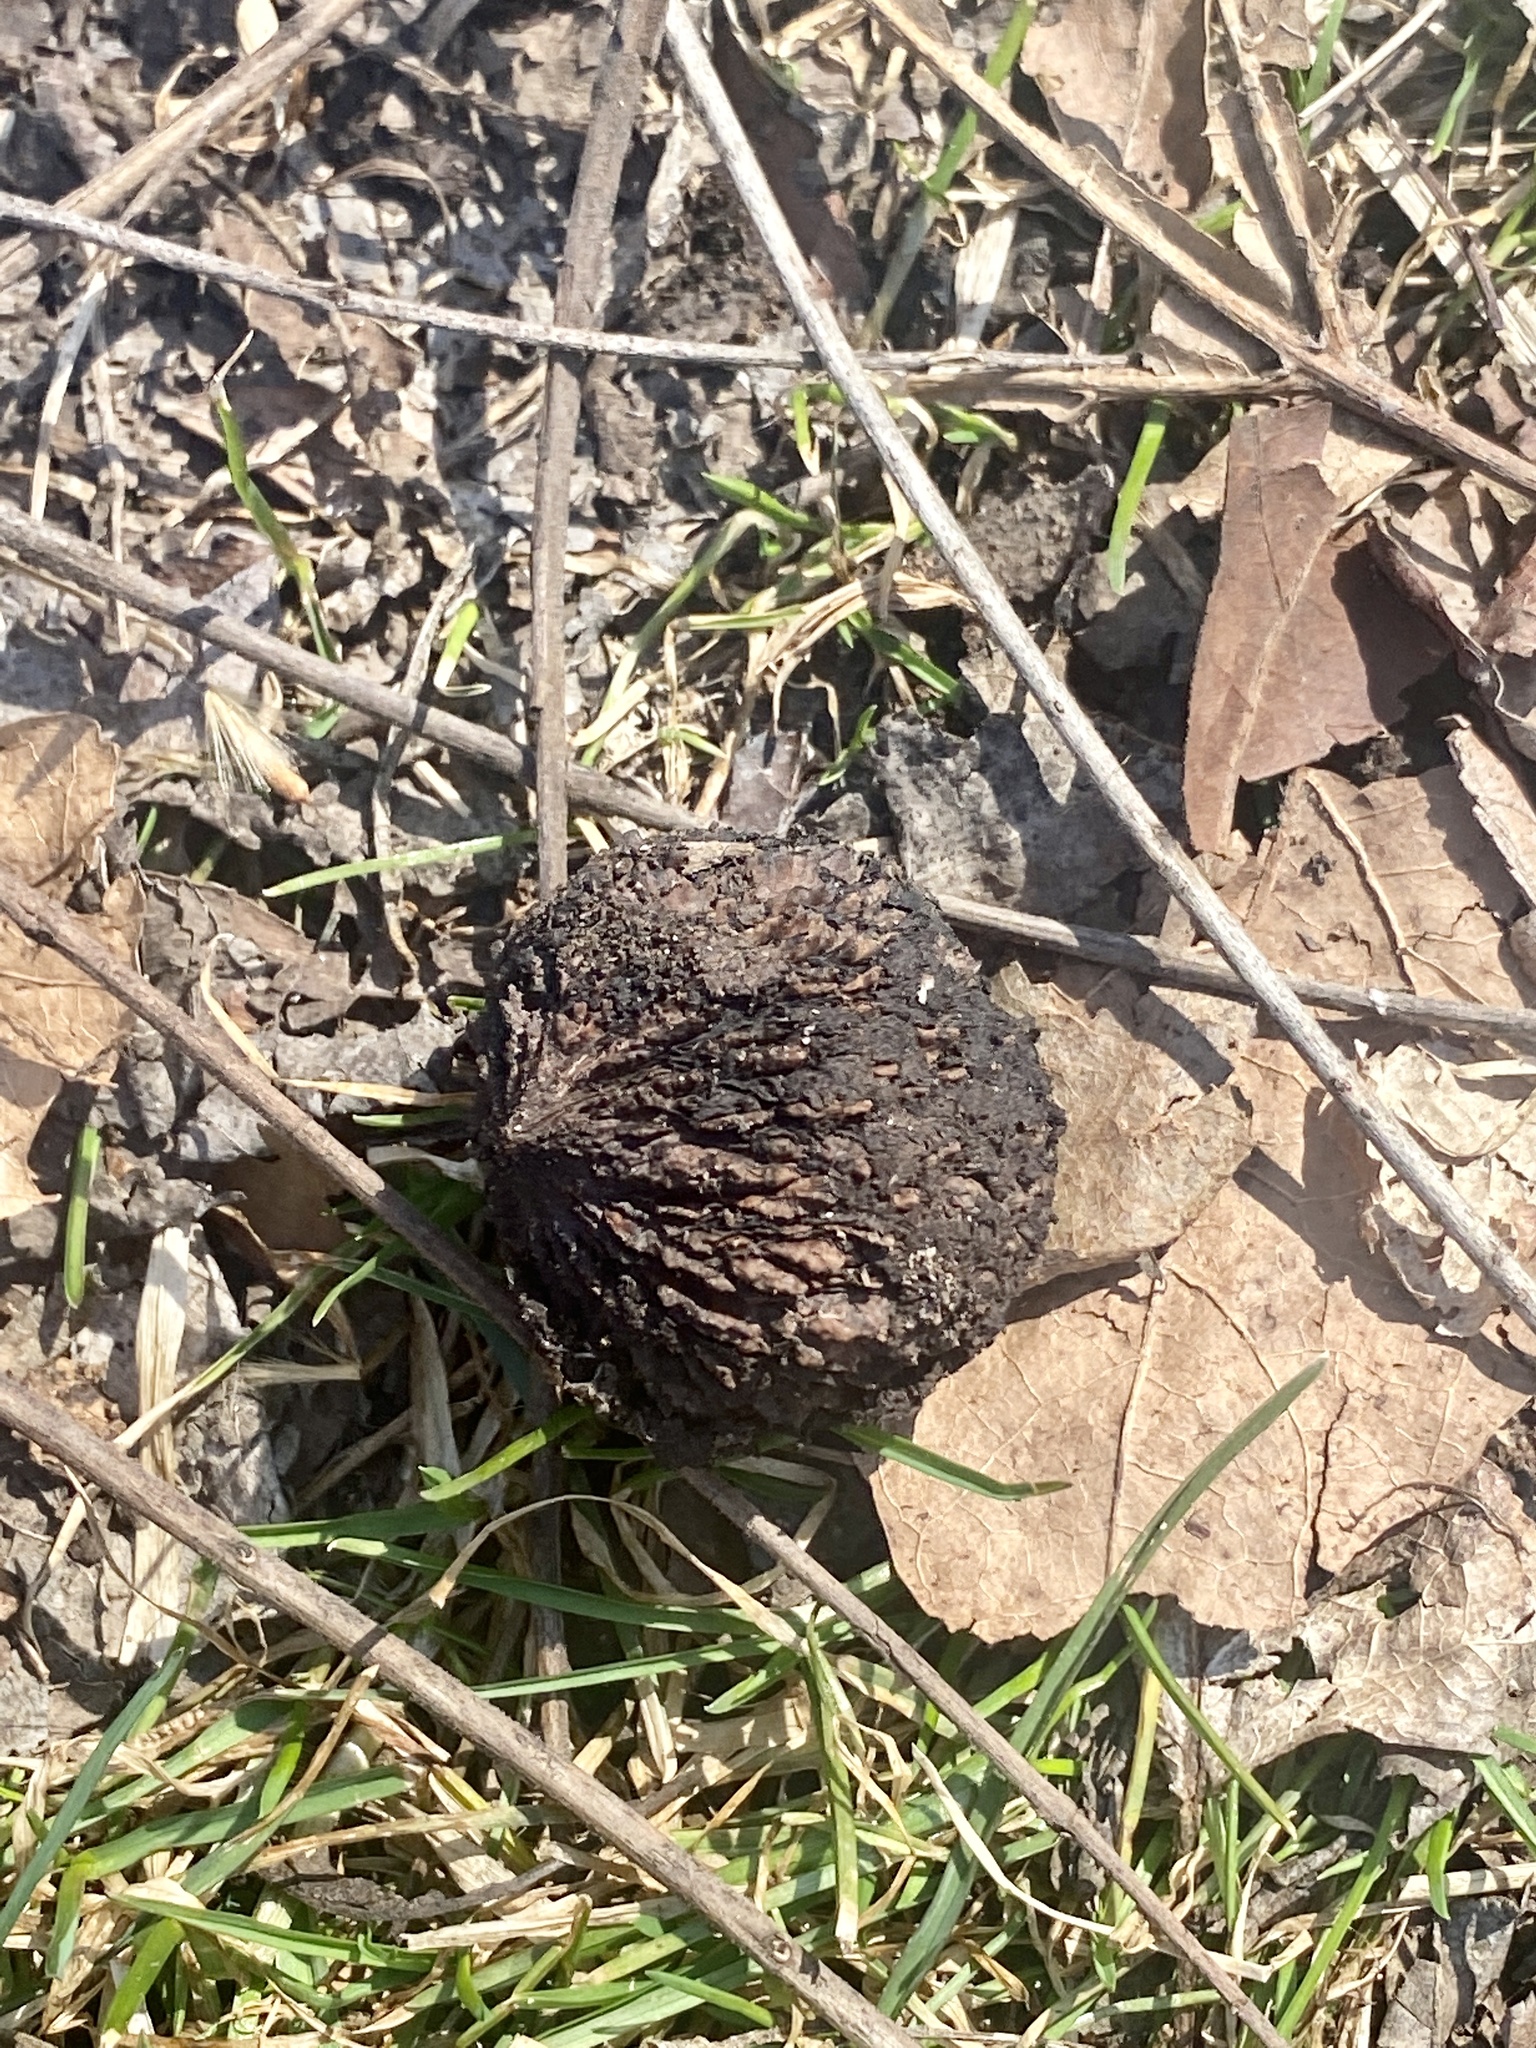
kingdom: Plantae
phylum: Tracheophyta
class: Magnoliopsida
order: Fagales
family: Juglandaceae
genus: Juglans
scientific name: Juglans nigra
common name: Black walnut
